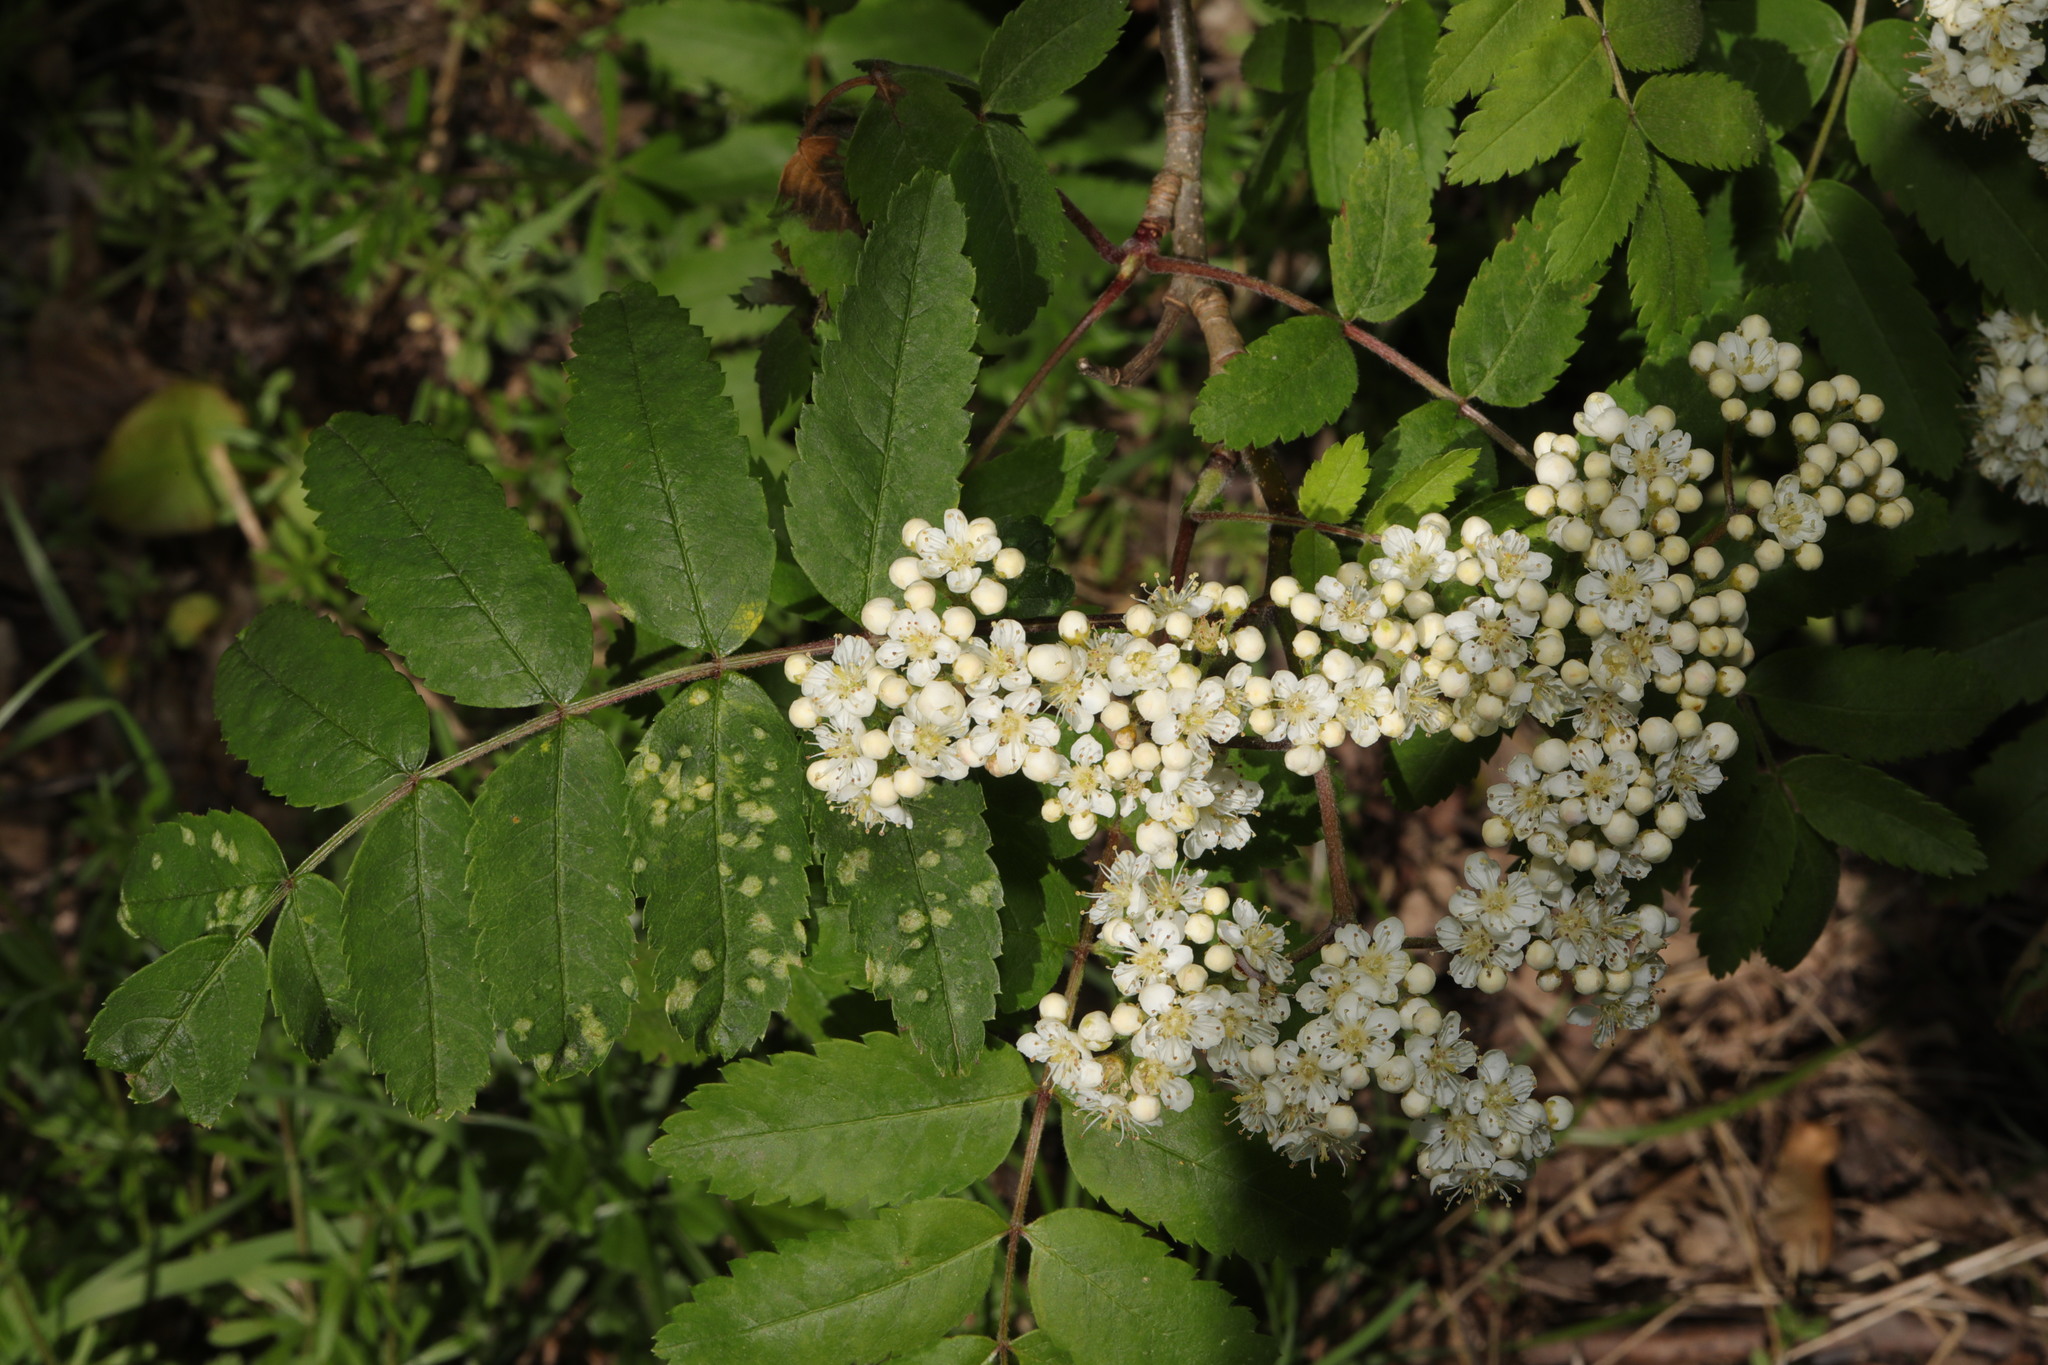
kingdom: Plantae
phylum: Tracheophyta
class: Magnoliopsida
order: Rosales
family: Rosaceae
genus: Sorbus
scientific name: Sorbus aucuparia
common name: Rowan
